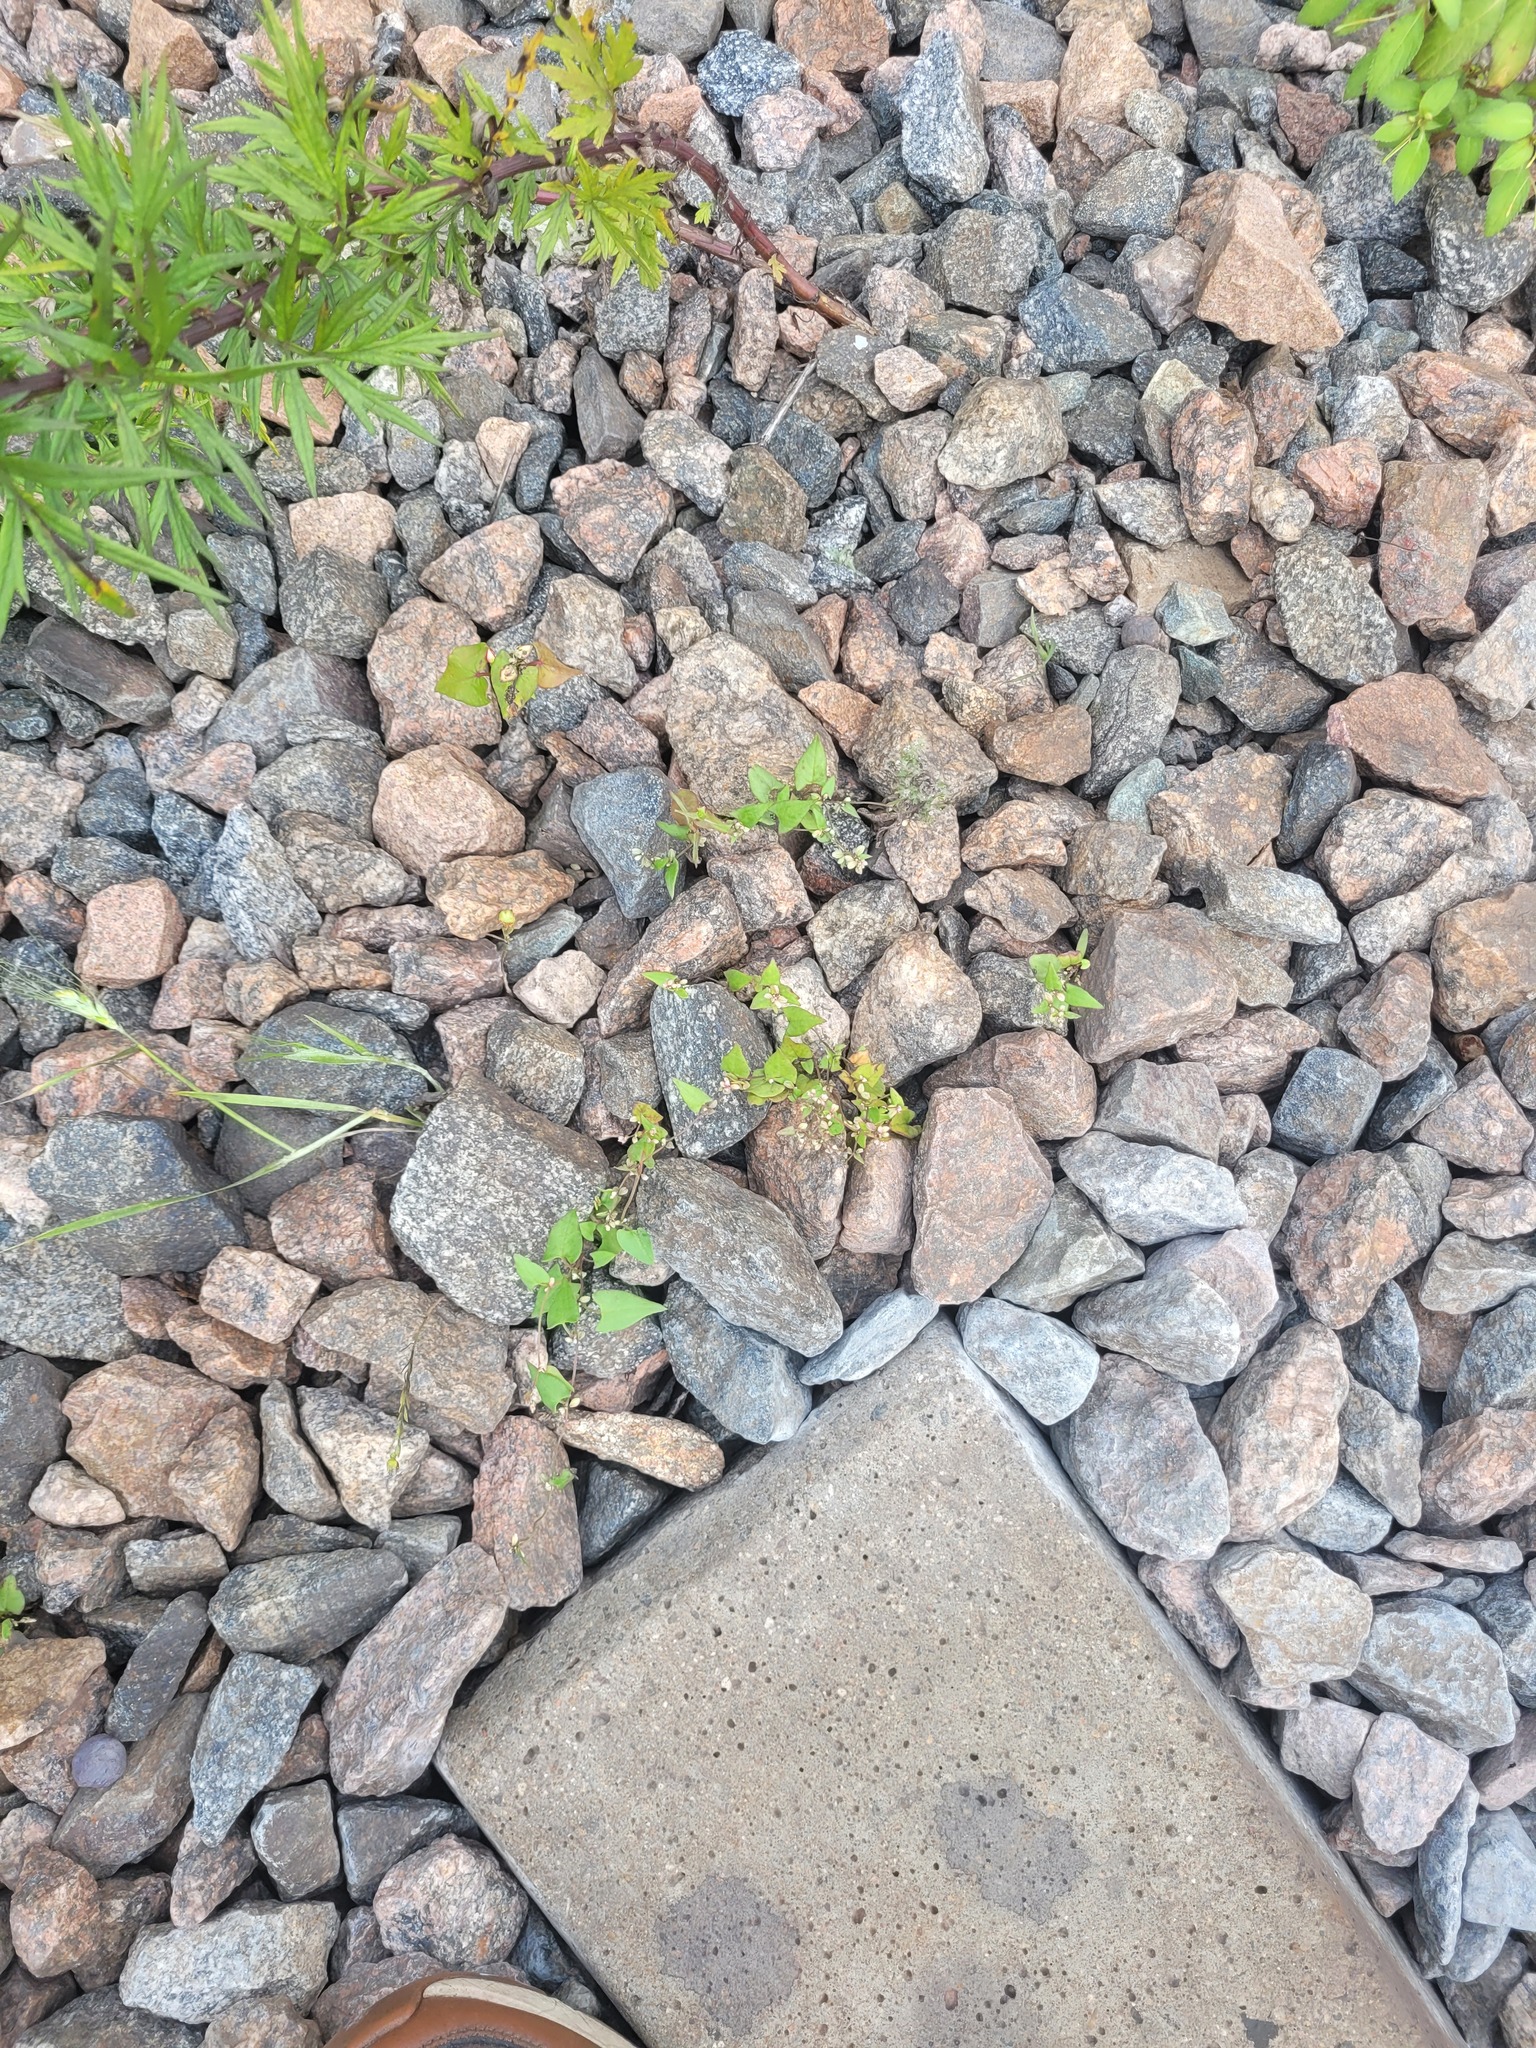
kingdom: Plantae
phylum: Tracheophyta
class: Magnoliopsida
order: Caryophyllales
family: Polygonaceae
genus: Fallopia
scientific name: Fallopia convolvulus
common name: Black bindweed
